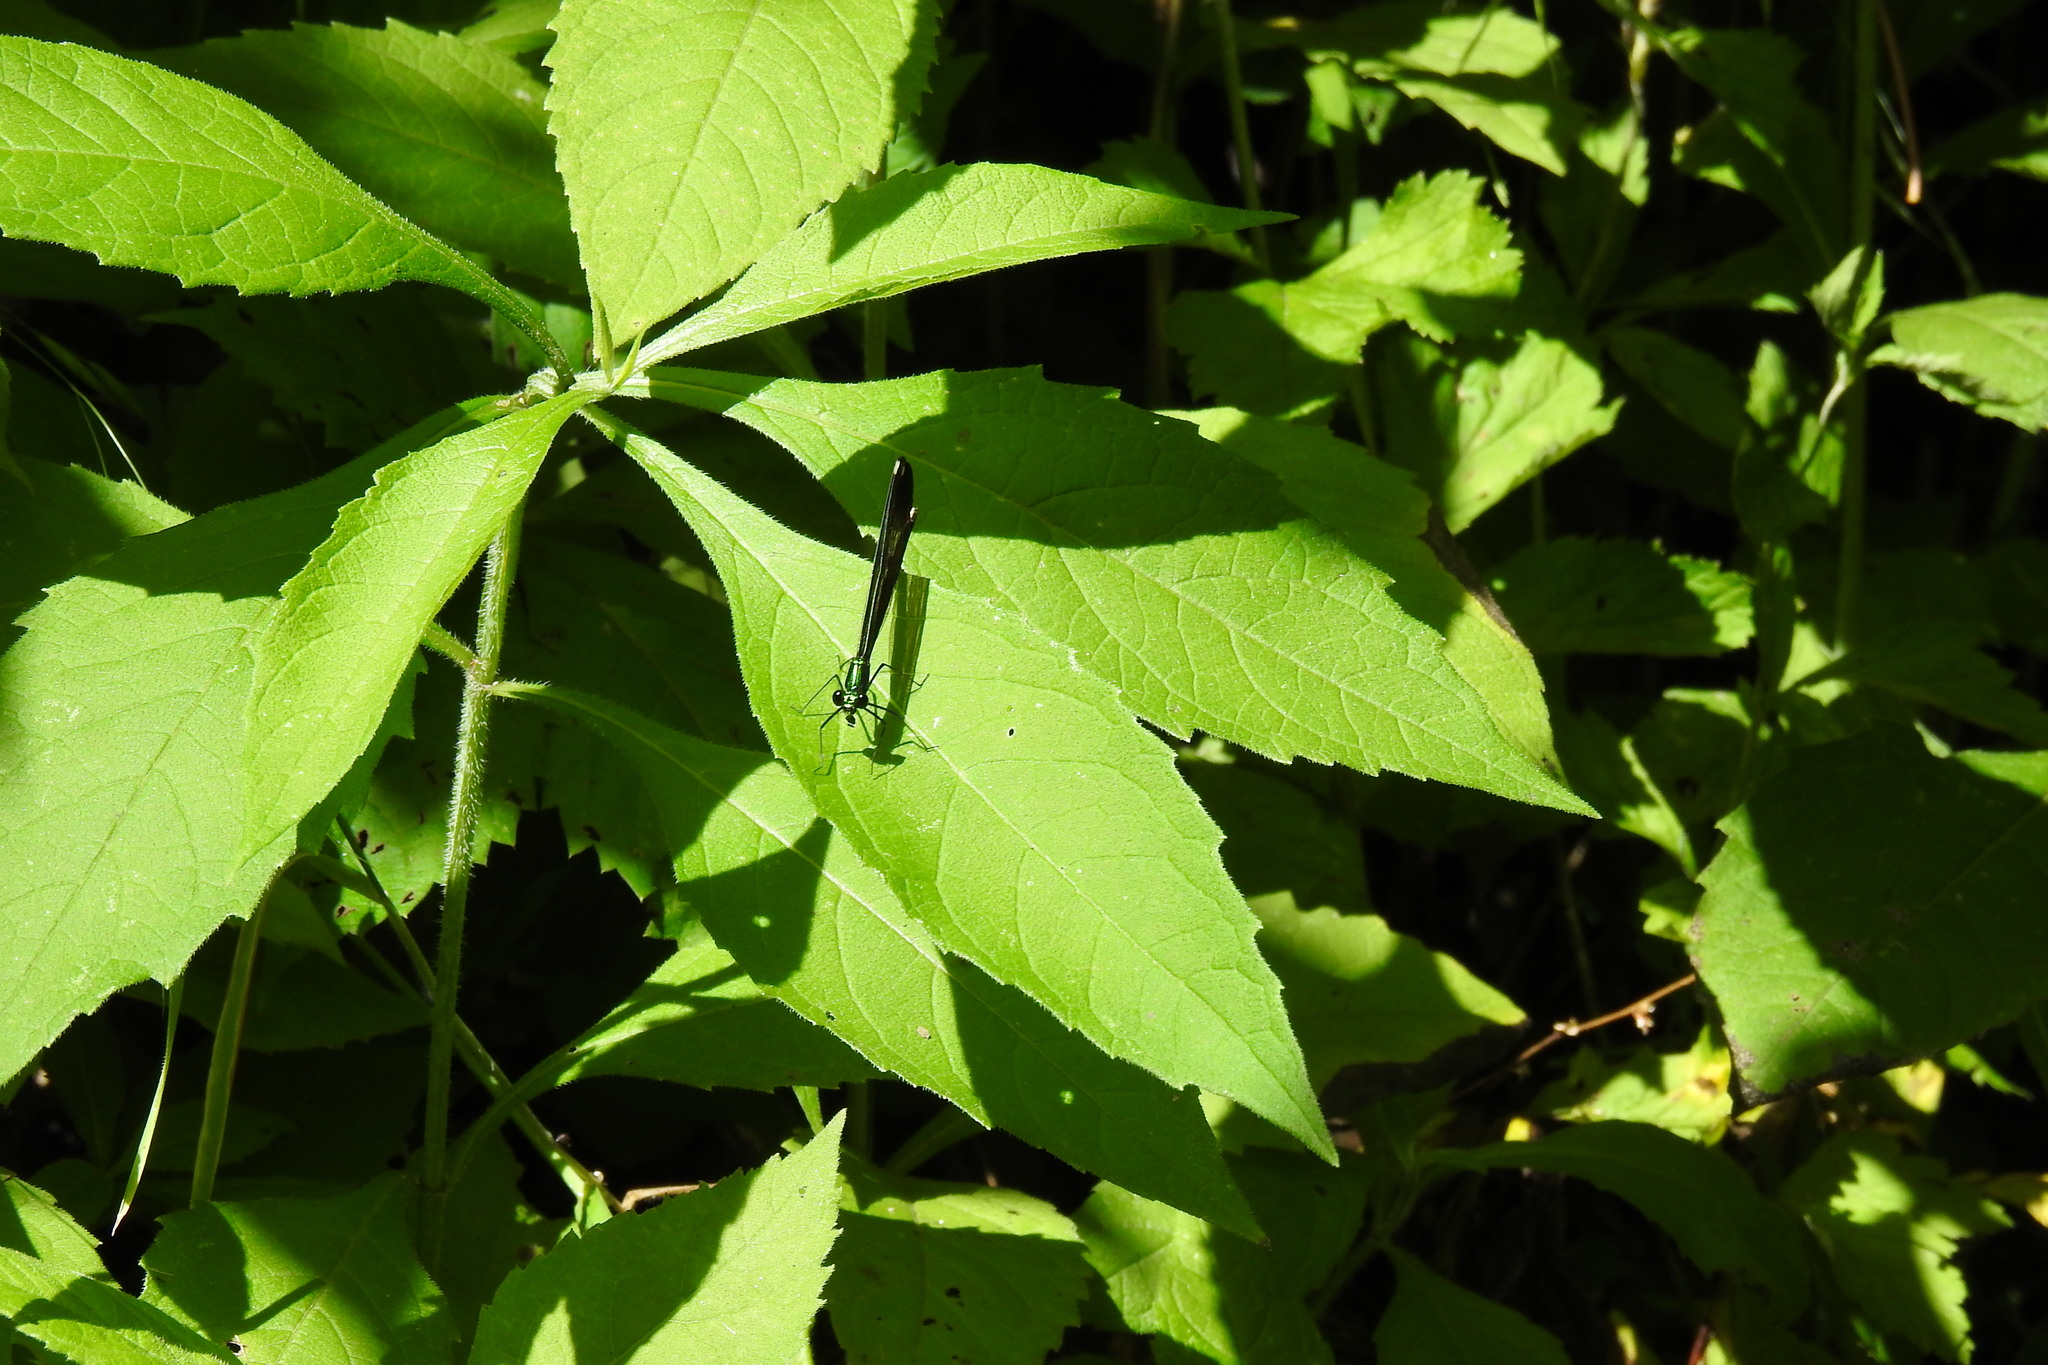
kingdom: Animalia
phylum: Arthropoda
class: Insecta
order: Odonata
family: Calopterygidae
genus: Calopteryx
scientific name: Calopteryx maculata
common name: Ebony jewelwing
